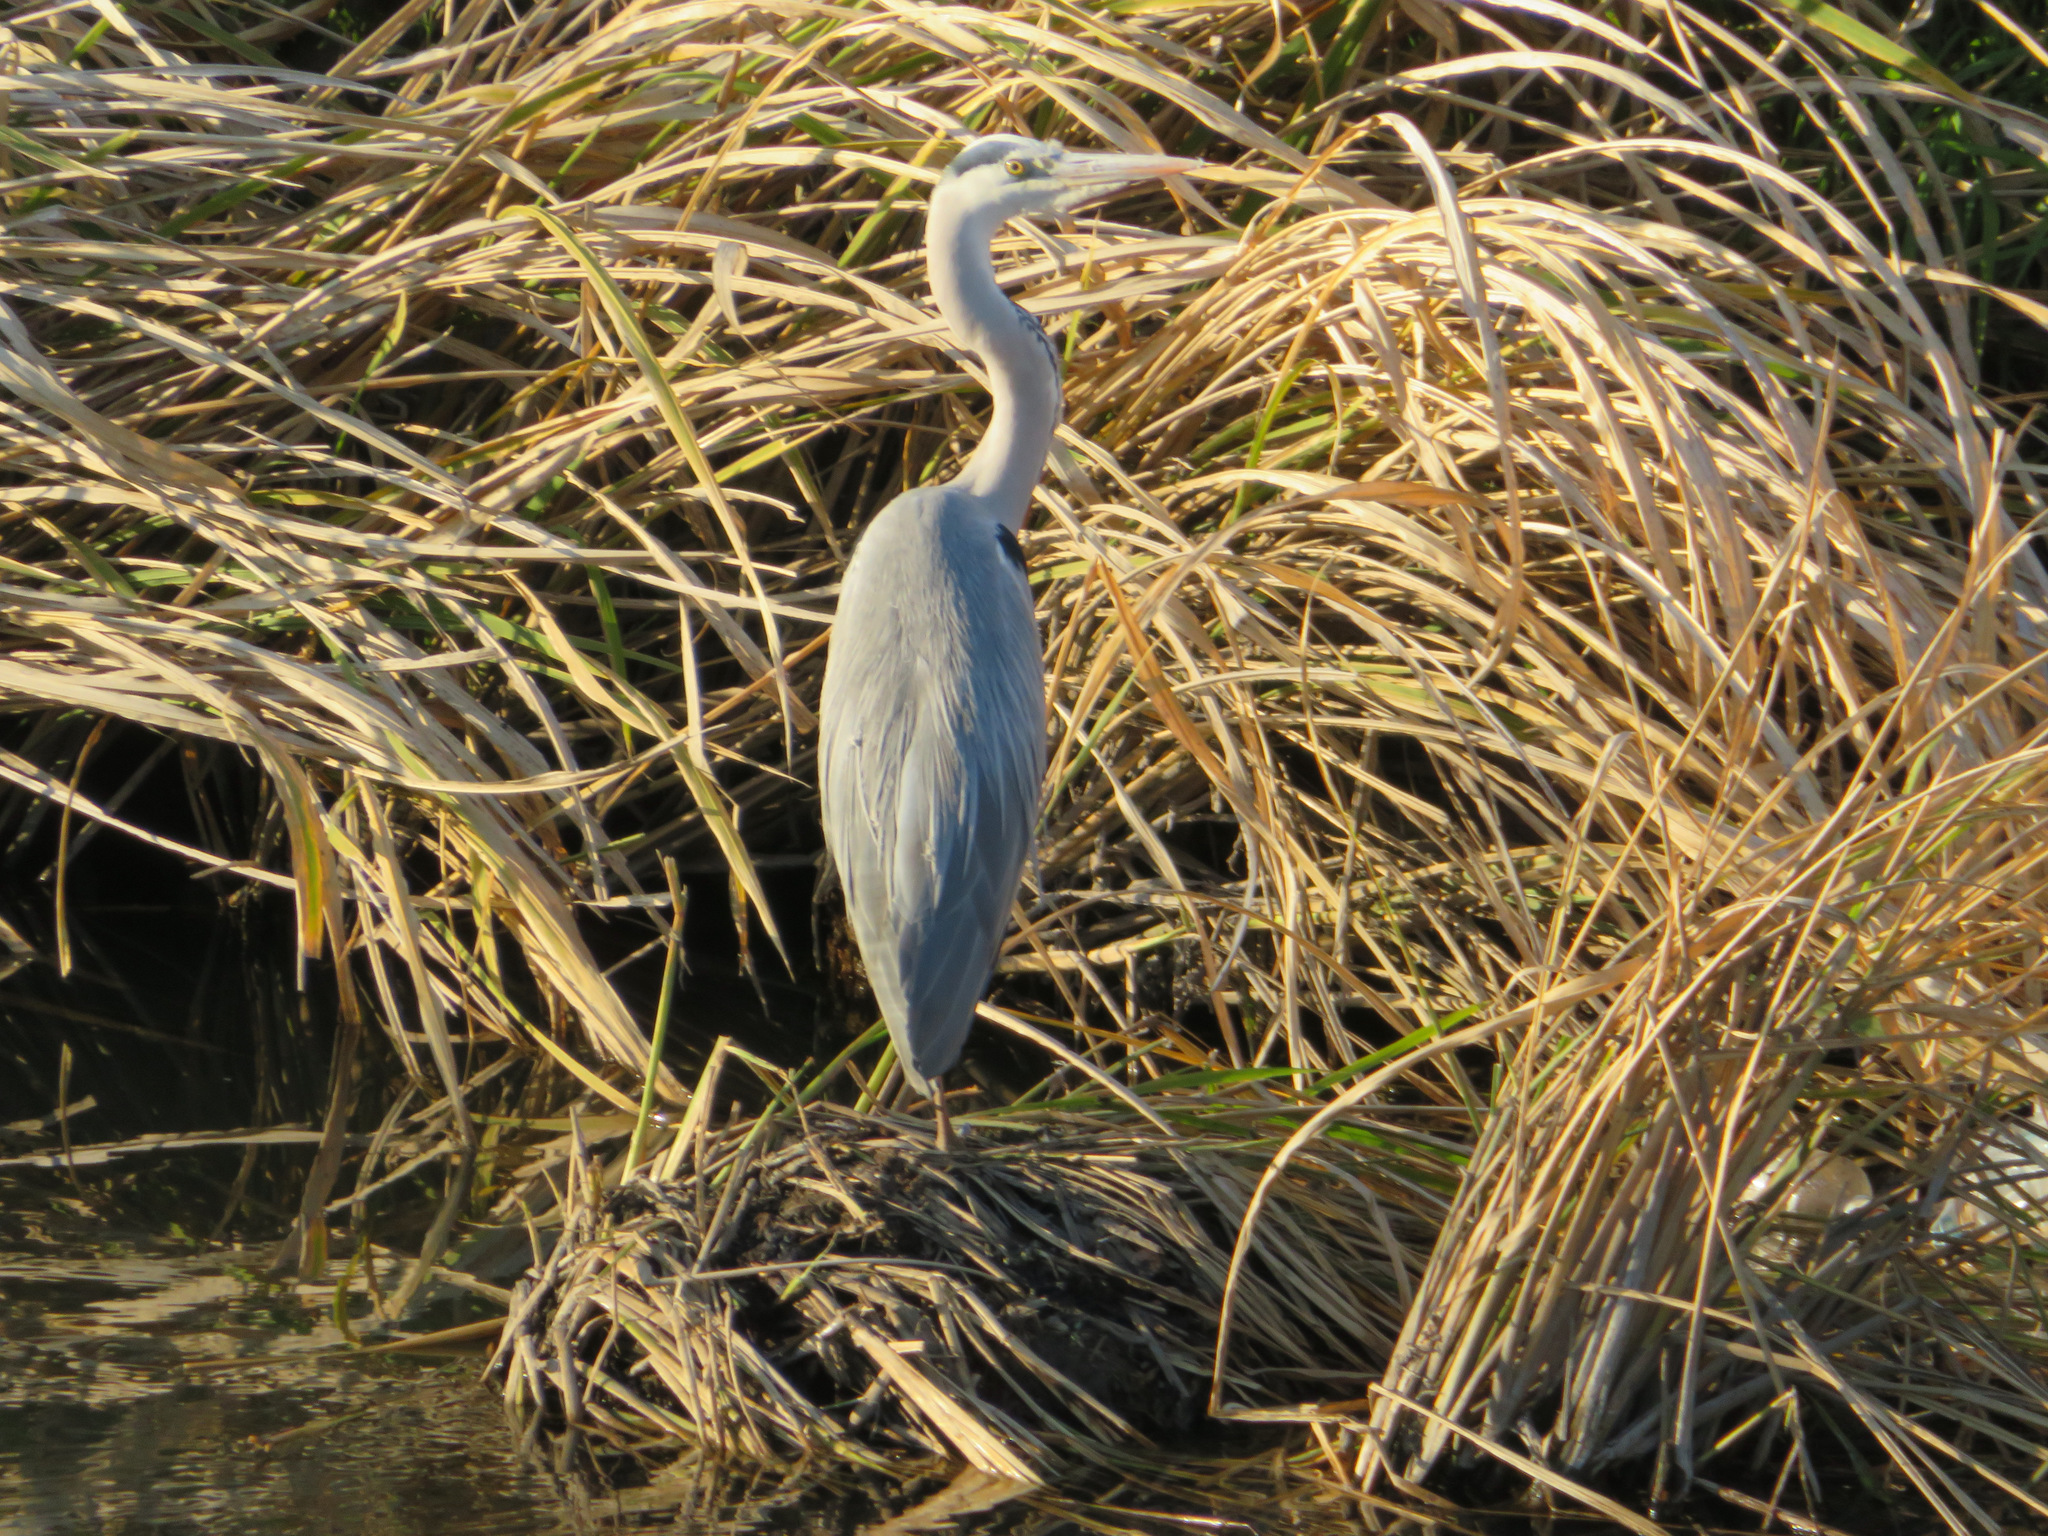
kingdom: Animalia
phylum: Chordata
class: Aves
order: Pelecaniformes
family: Ardeidae
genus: Ardea
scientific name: Ardea cinerea
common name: Grey heron
